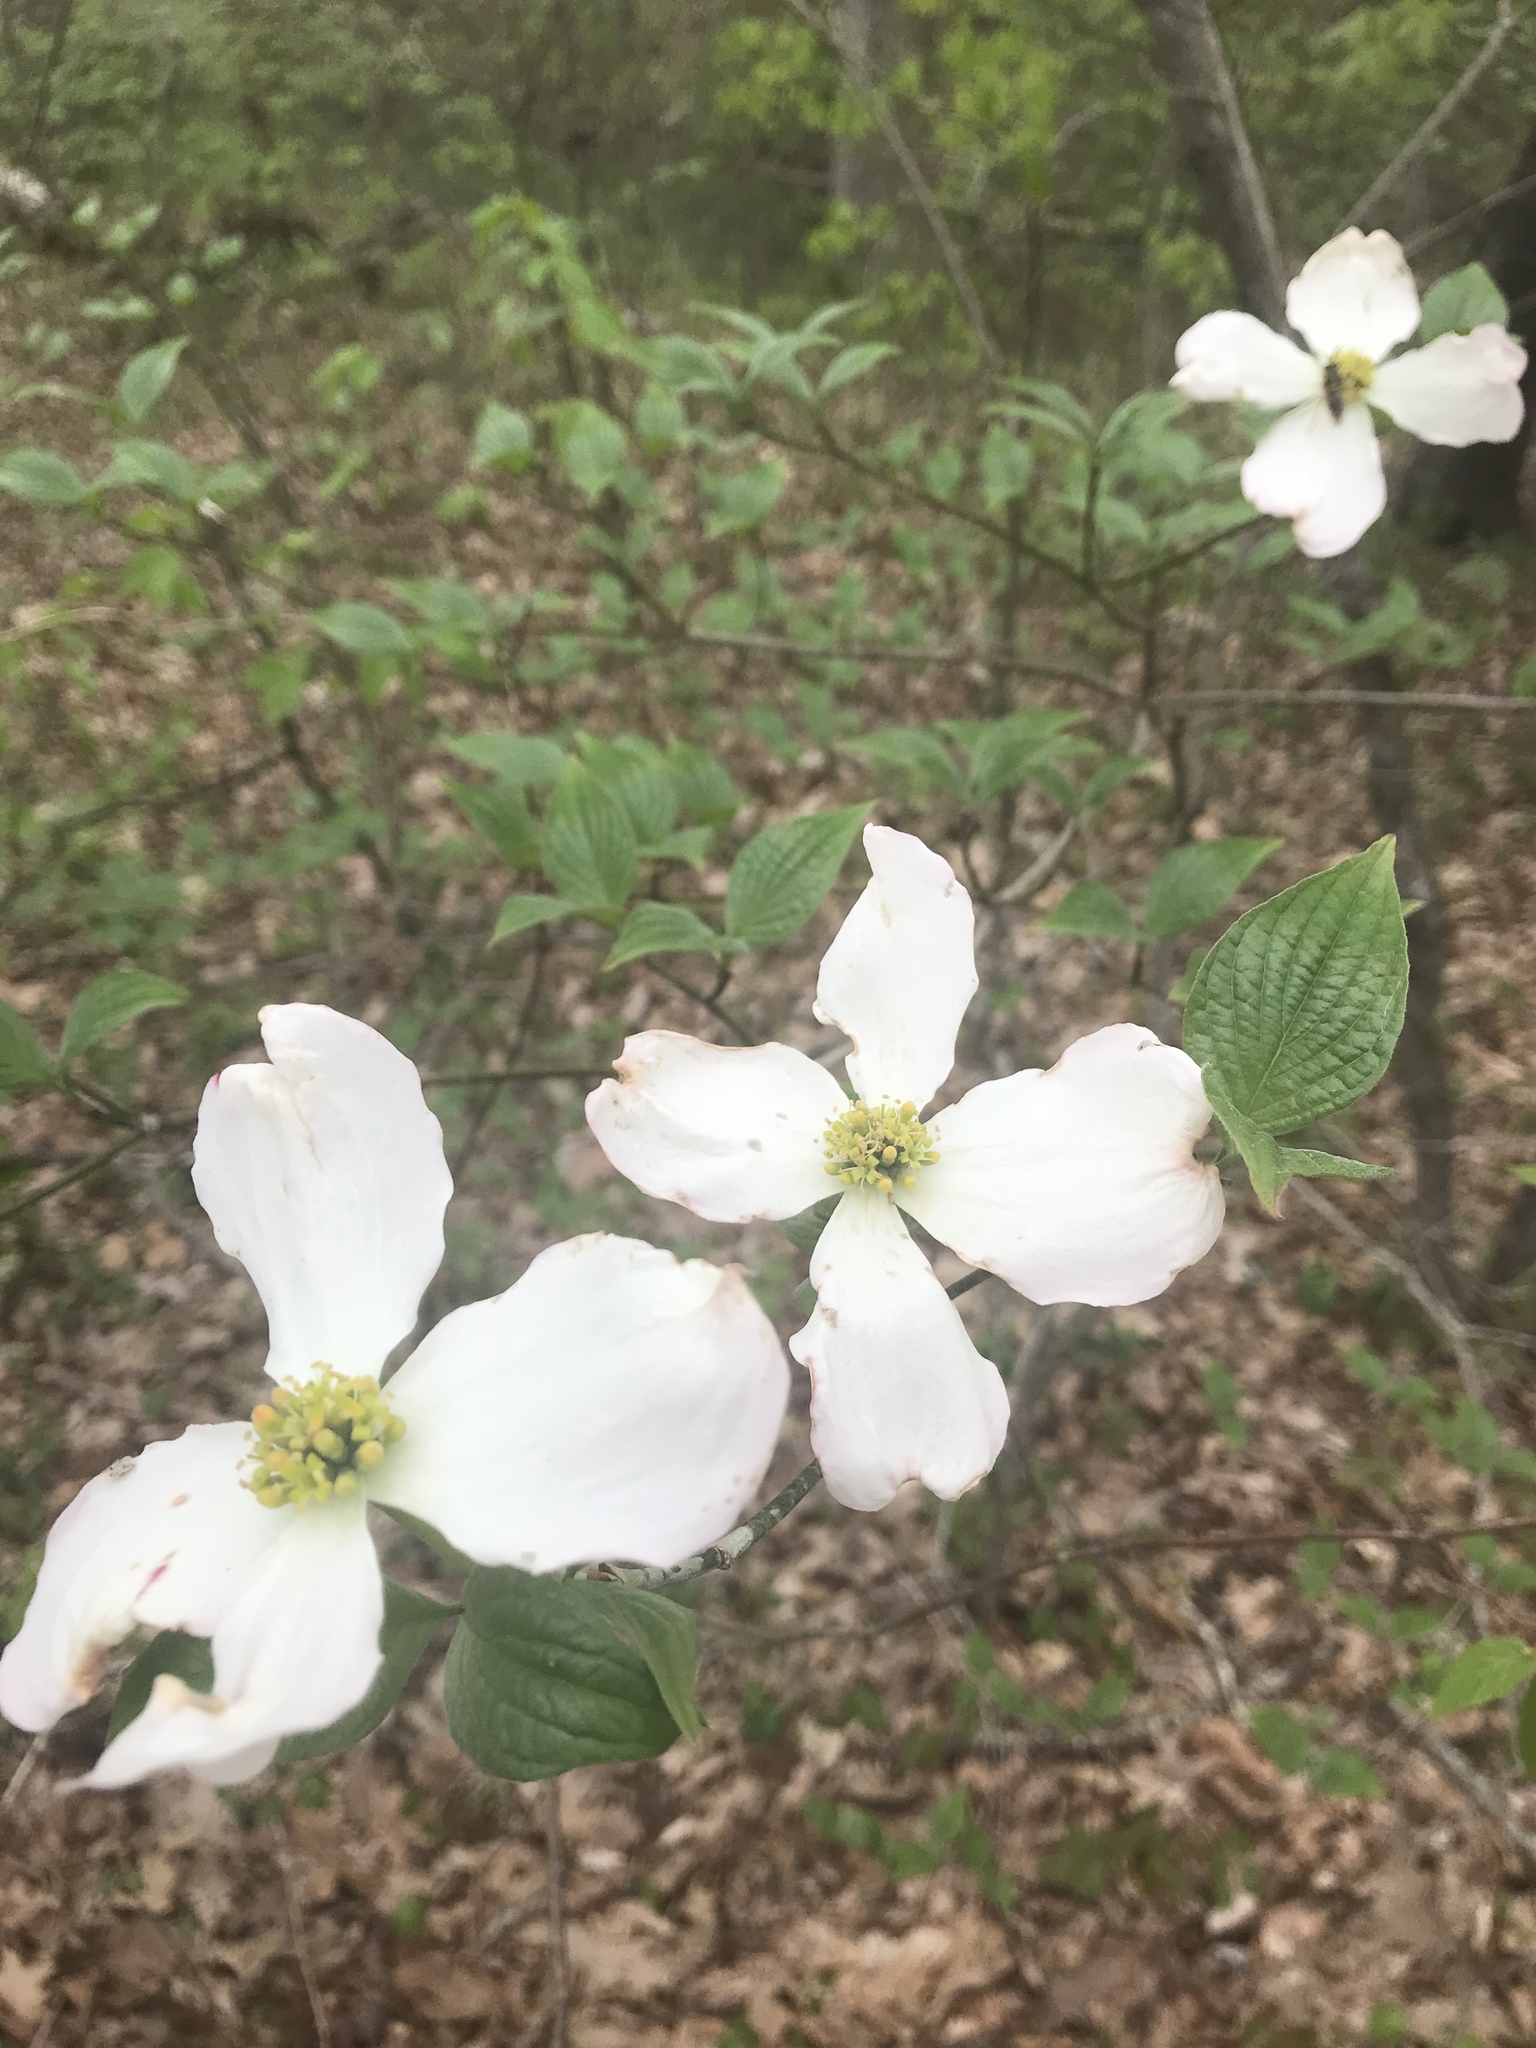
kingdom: Plantae
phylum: Tracheophyta
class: Magnoliopsida
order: Cornales
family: Cornaceae
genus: Cornus
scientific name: Cornus florida
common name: Flowering dogwood
